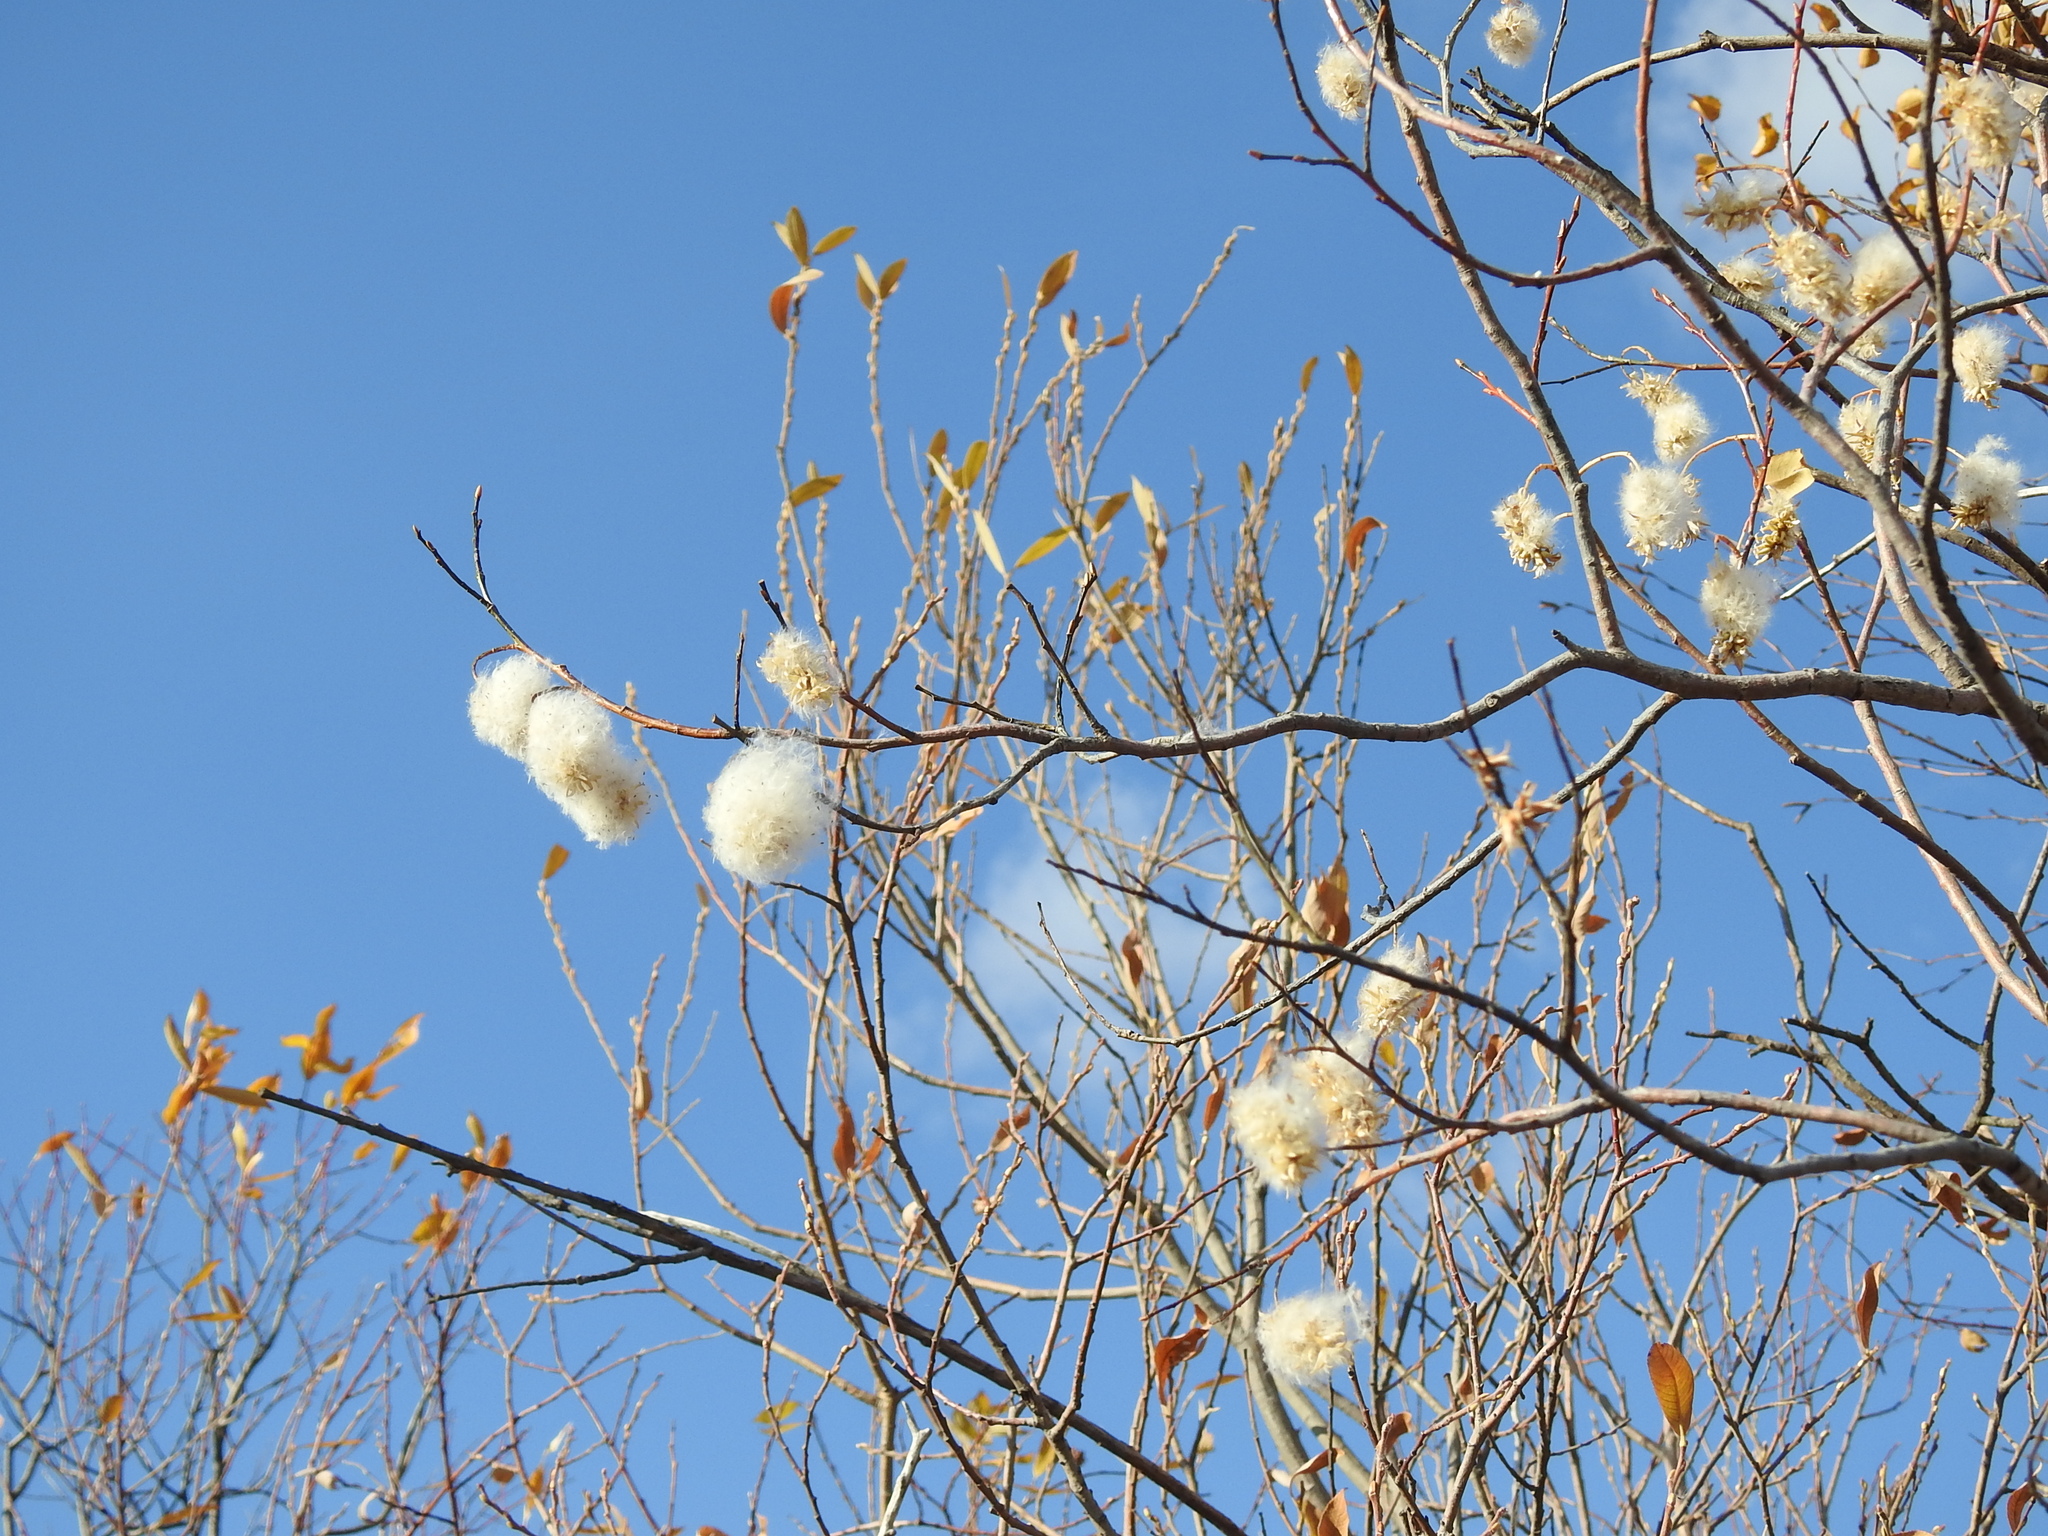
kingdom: Plantae
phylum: Tracheophyta
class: Magnoliopsida
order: Malpighiales
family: Salicaceae
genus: Salix
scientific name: Salix pentandra
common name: Bay willow
